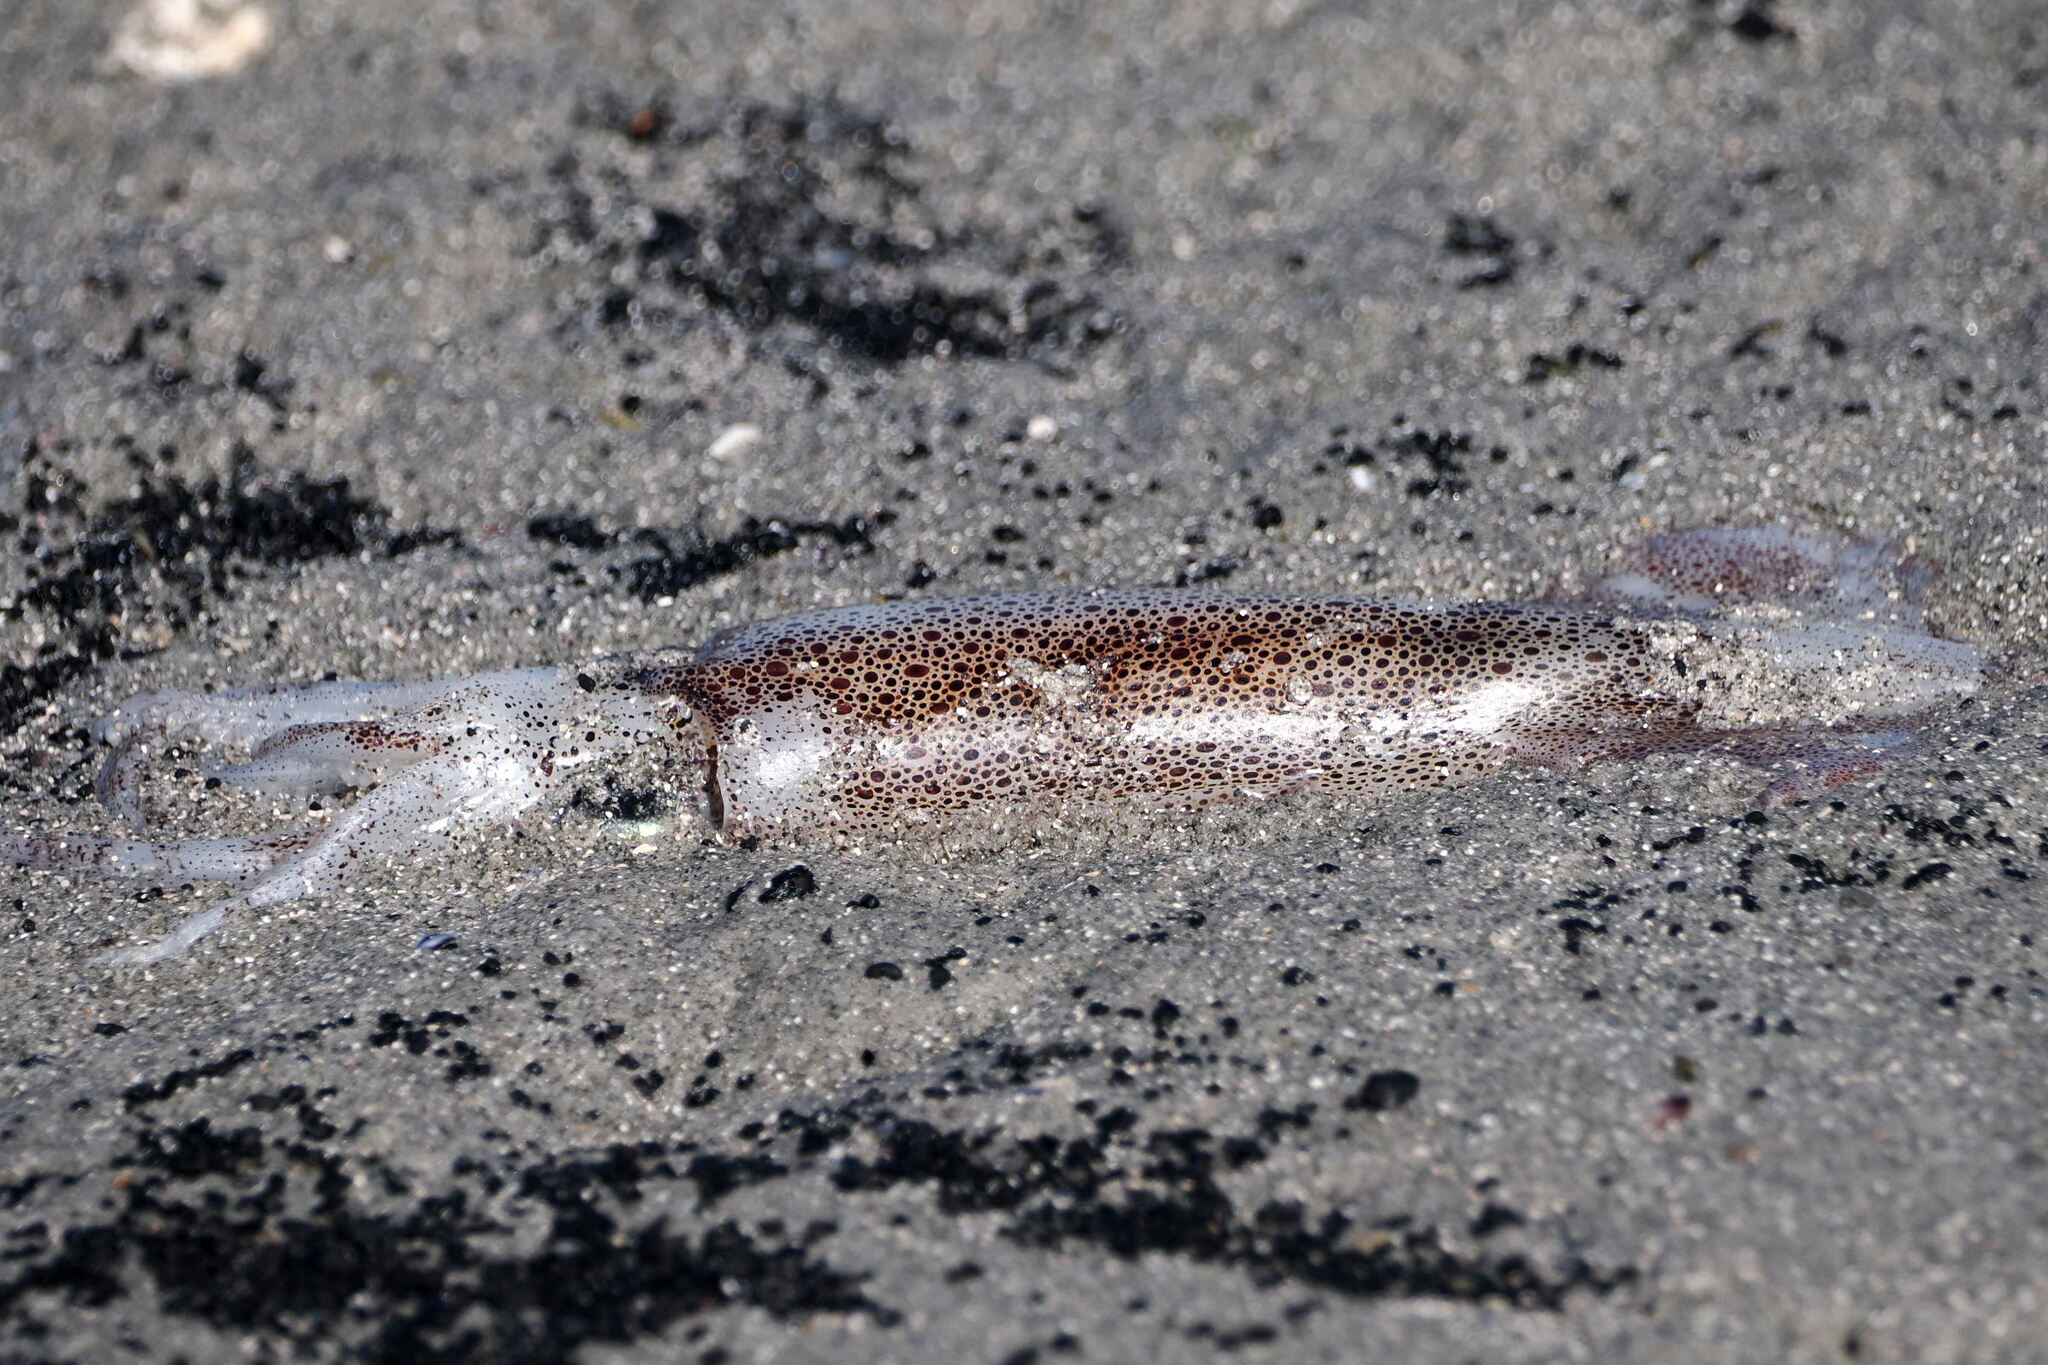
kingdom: Animalia
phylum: Mollusca
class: Cephalopoda
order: Myopsida
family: Loliginidae
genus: Doryteuthis
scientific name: Doryteuthis gahi
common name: Patagonian longfin squid
